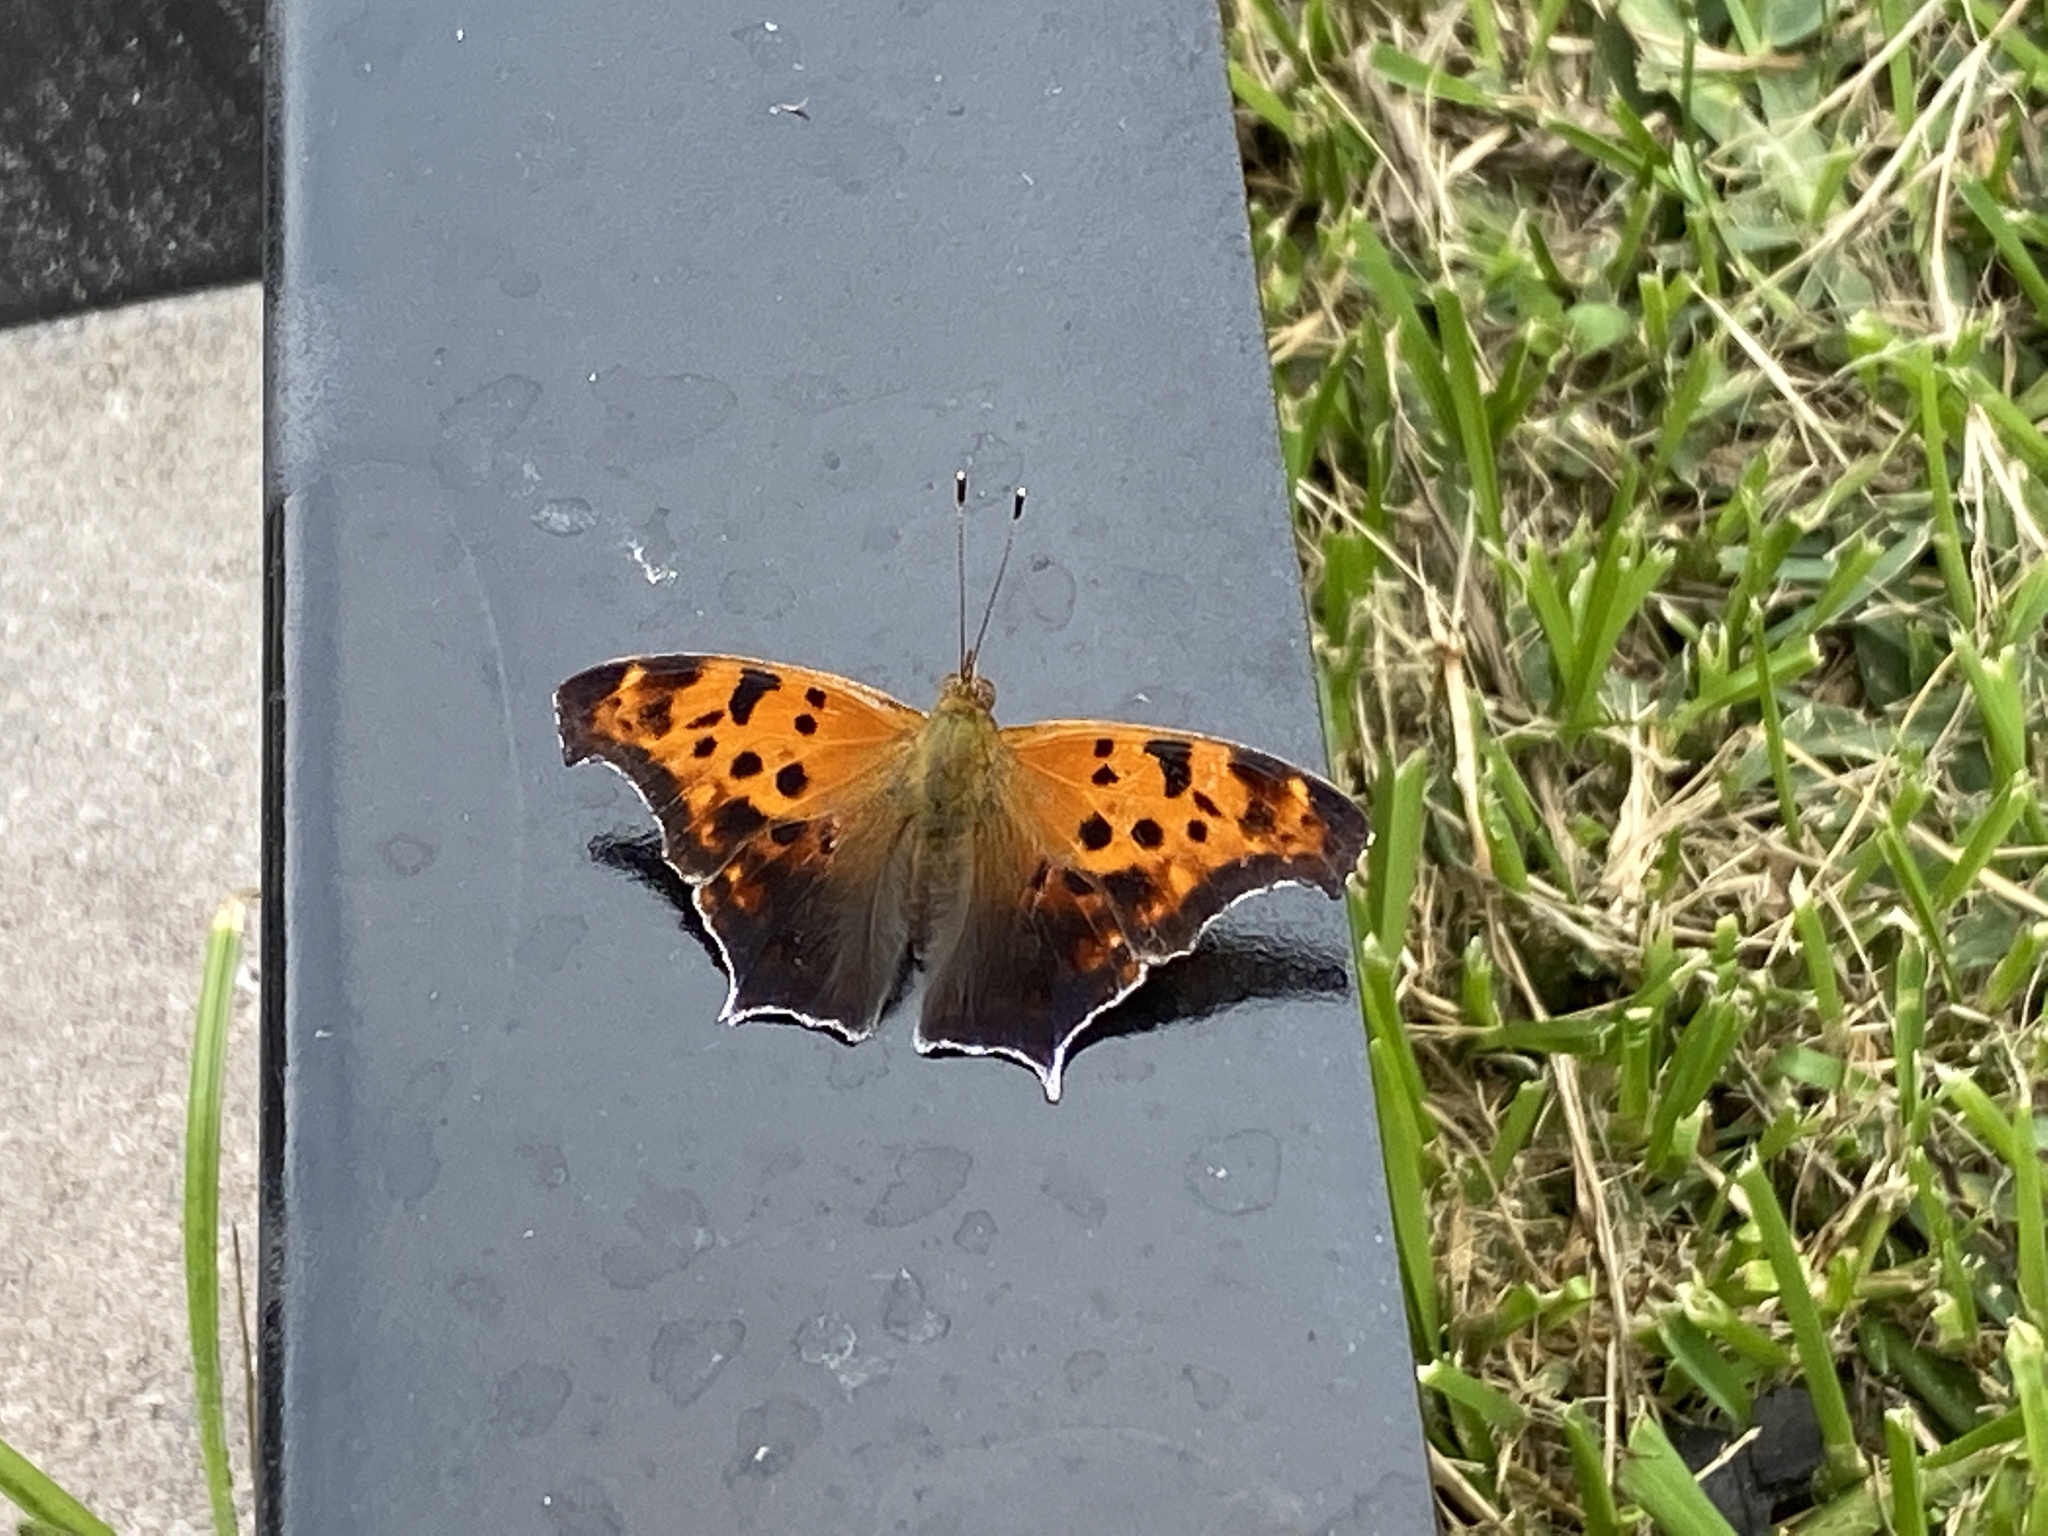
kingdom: Animalia
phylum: Arthropoda
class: Insecta
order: Lepidoptera
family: Nymphalidae
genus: Polygonia
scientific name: Polygonia interrogationis
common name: Question mark
